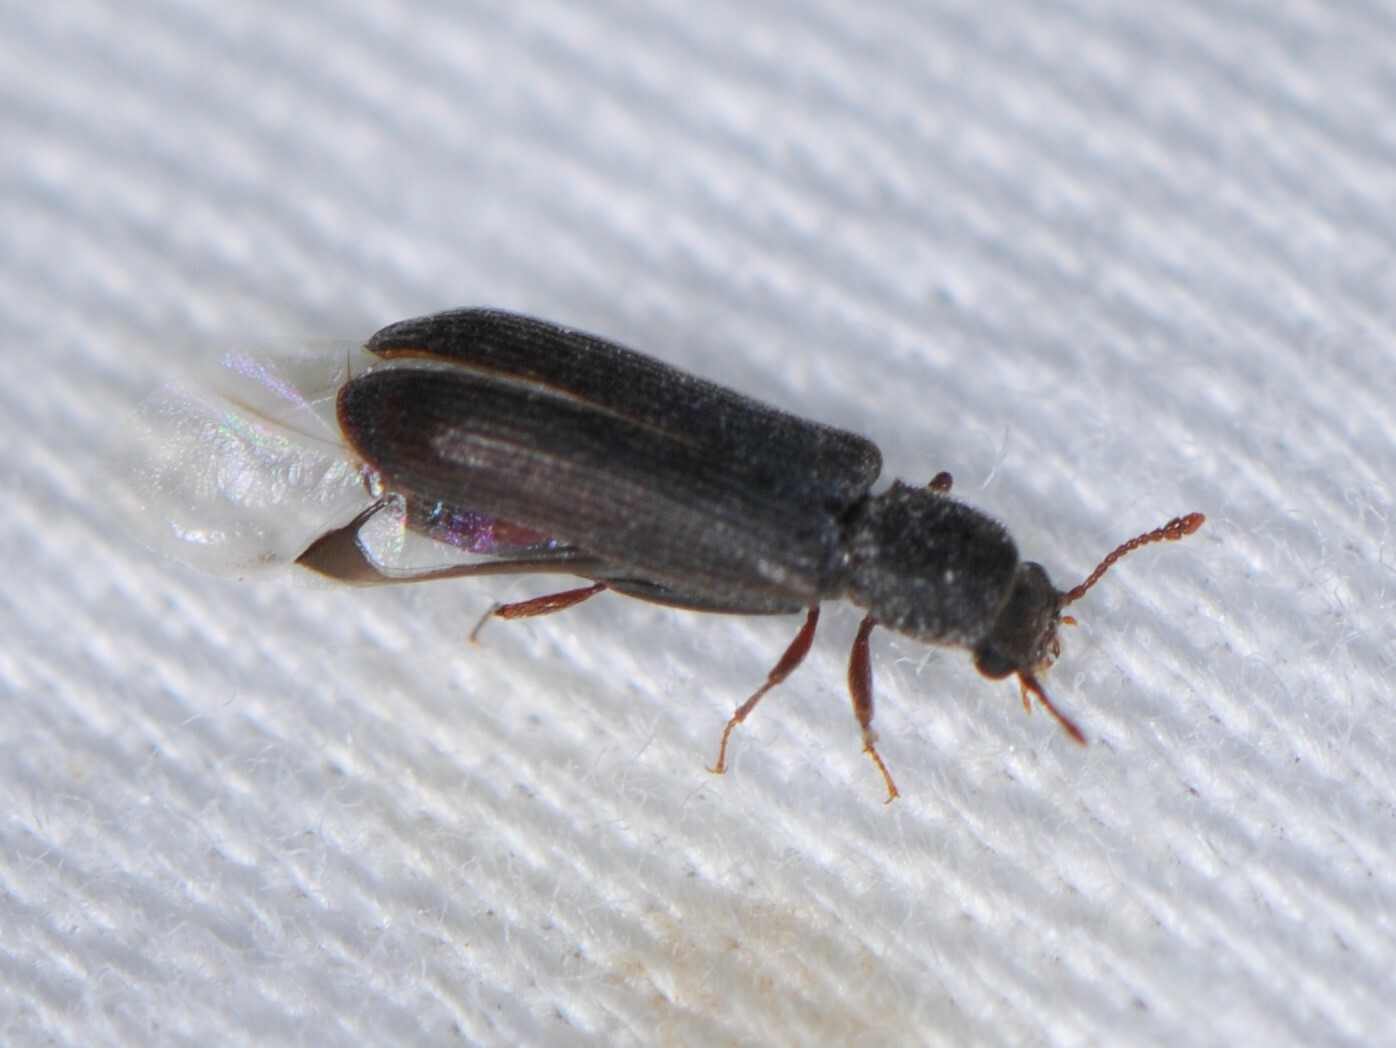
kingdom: Animalia
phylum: Arthropoda
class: Insecta
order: Coleoptera
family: Bostrichidae
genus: Lyctus
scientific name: Lyctus
